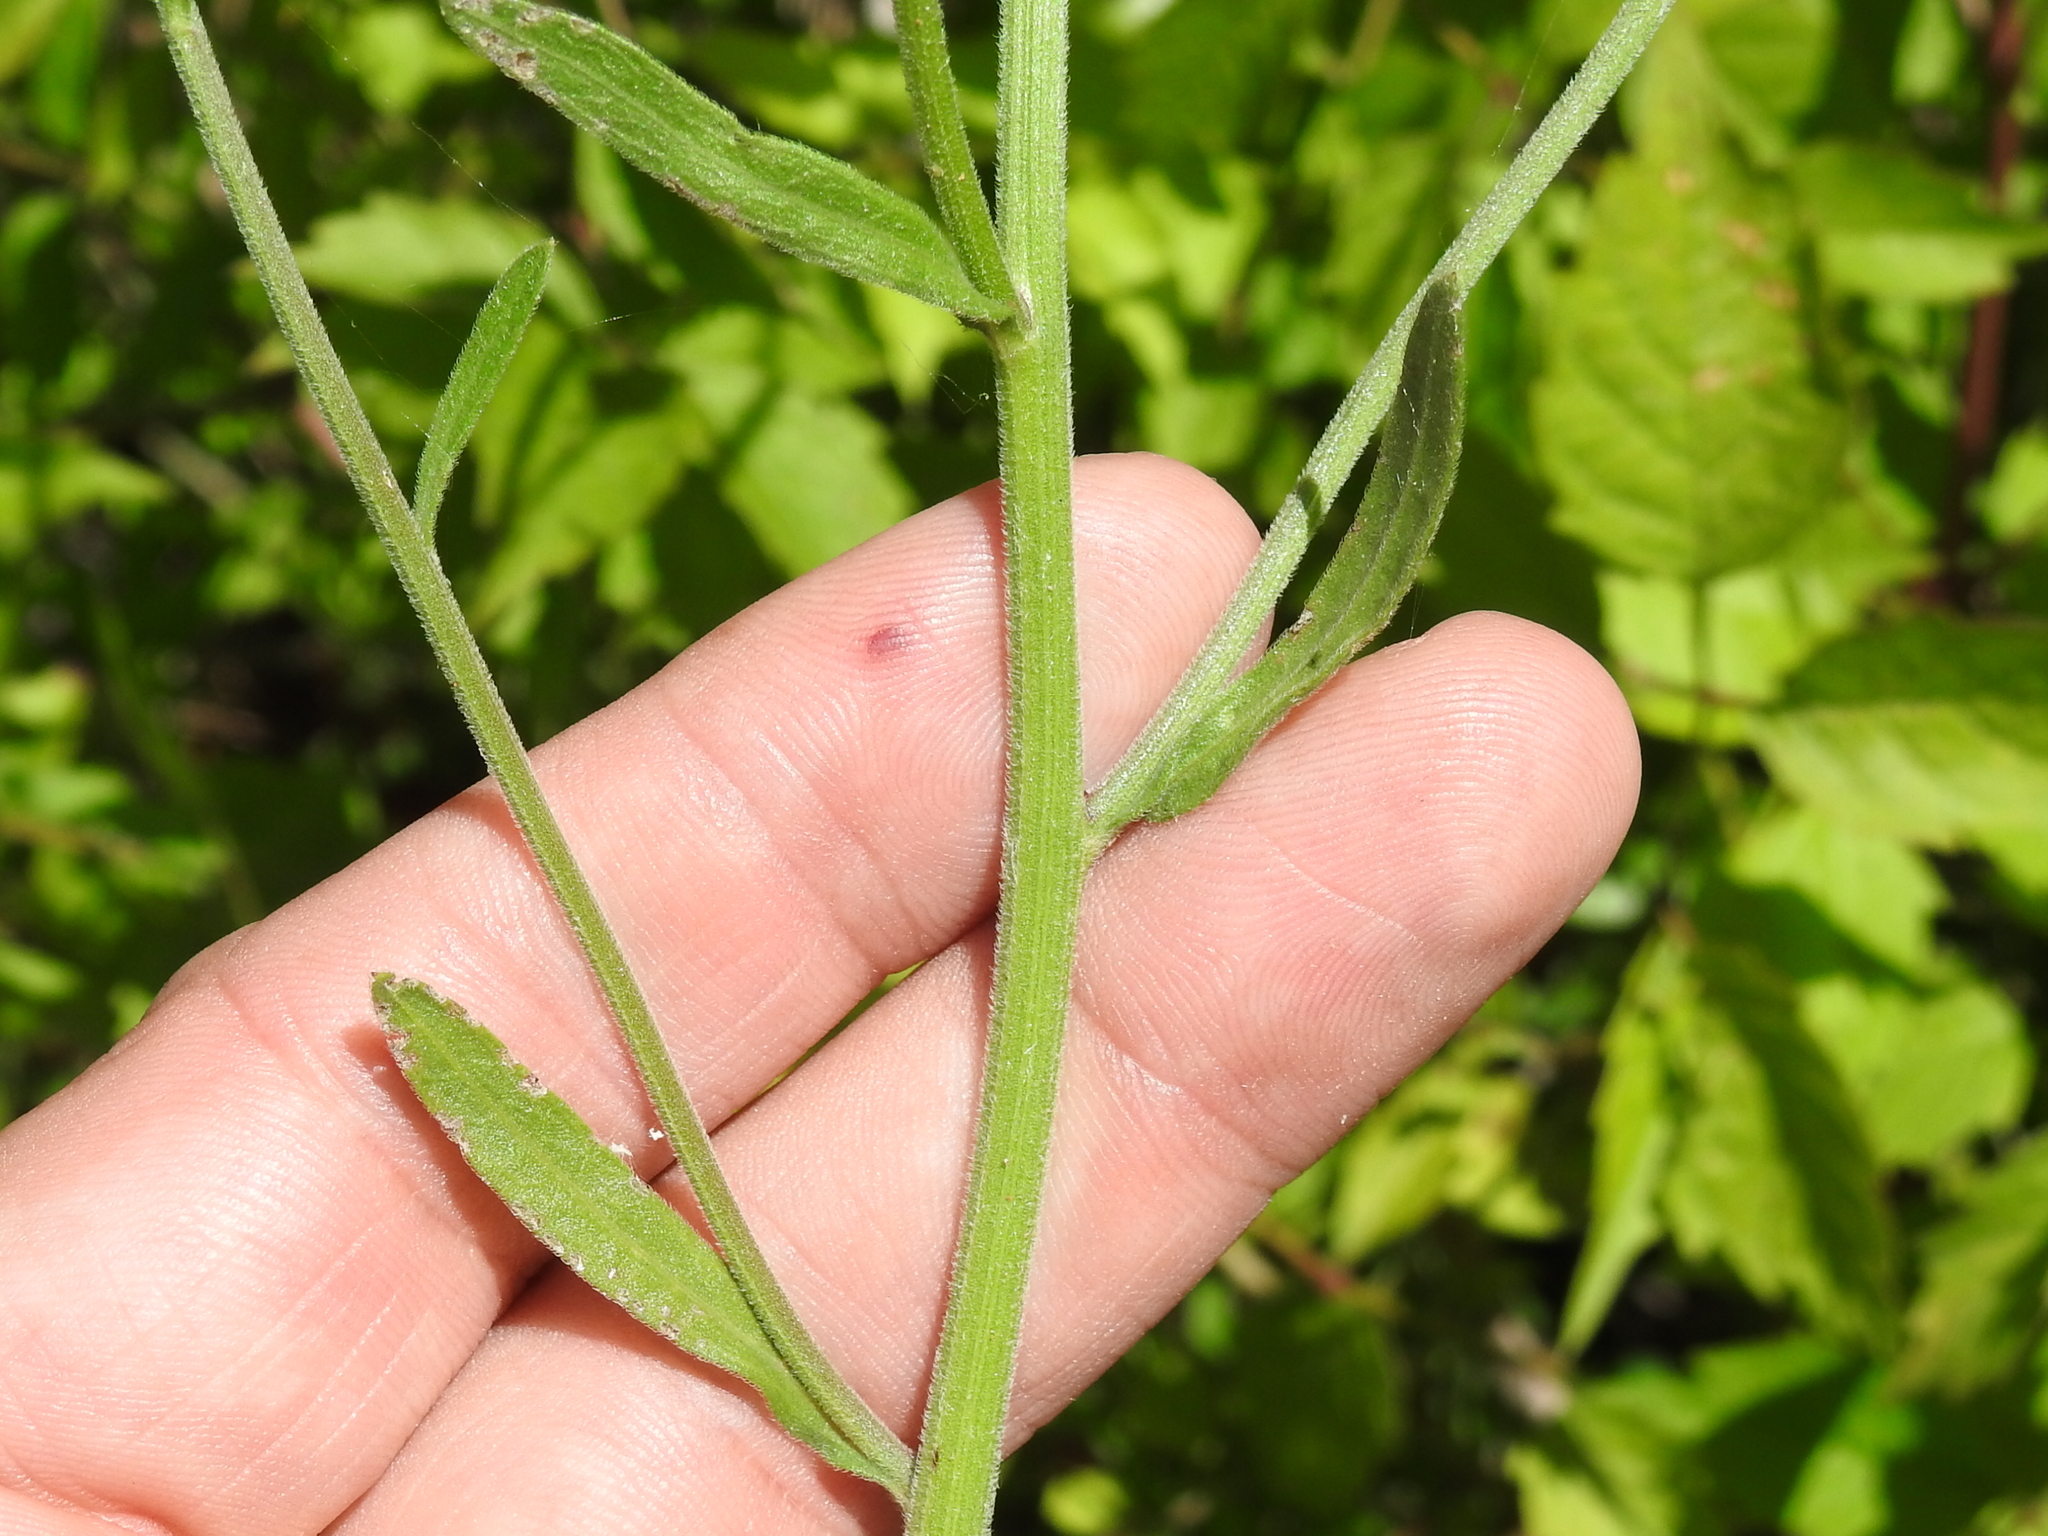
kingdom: Plantae
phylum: Tracheophyta
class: Magnoliopsida
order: Asterales
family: Asteraceae
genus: Erigeron
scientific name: Erigeron strigosus
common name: Common eastern fleabane
